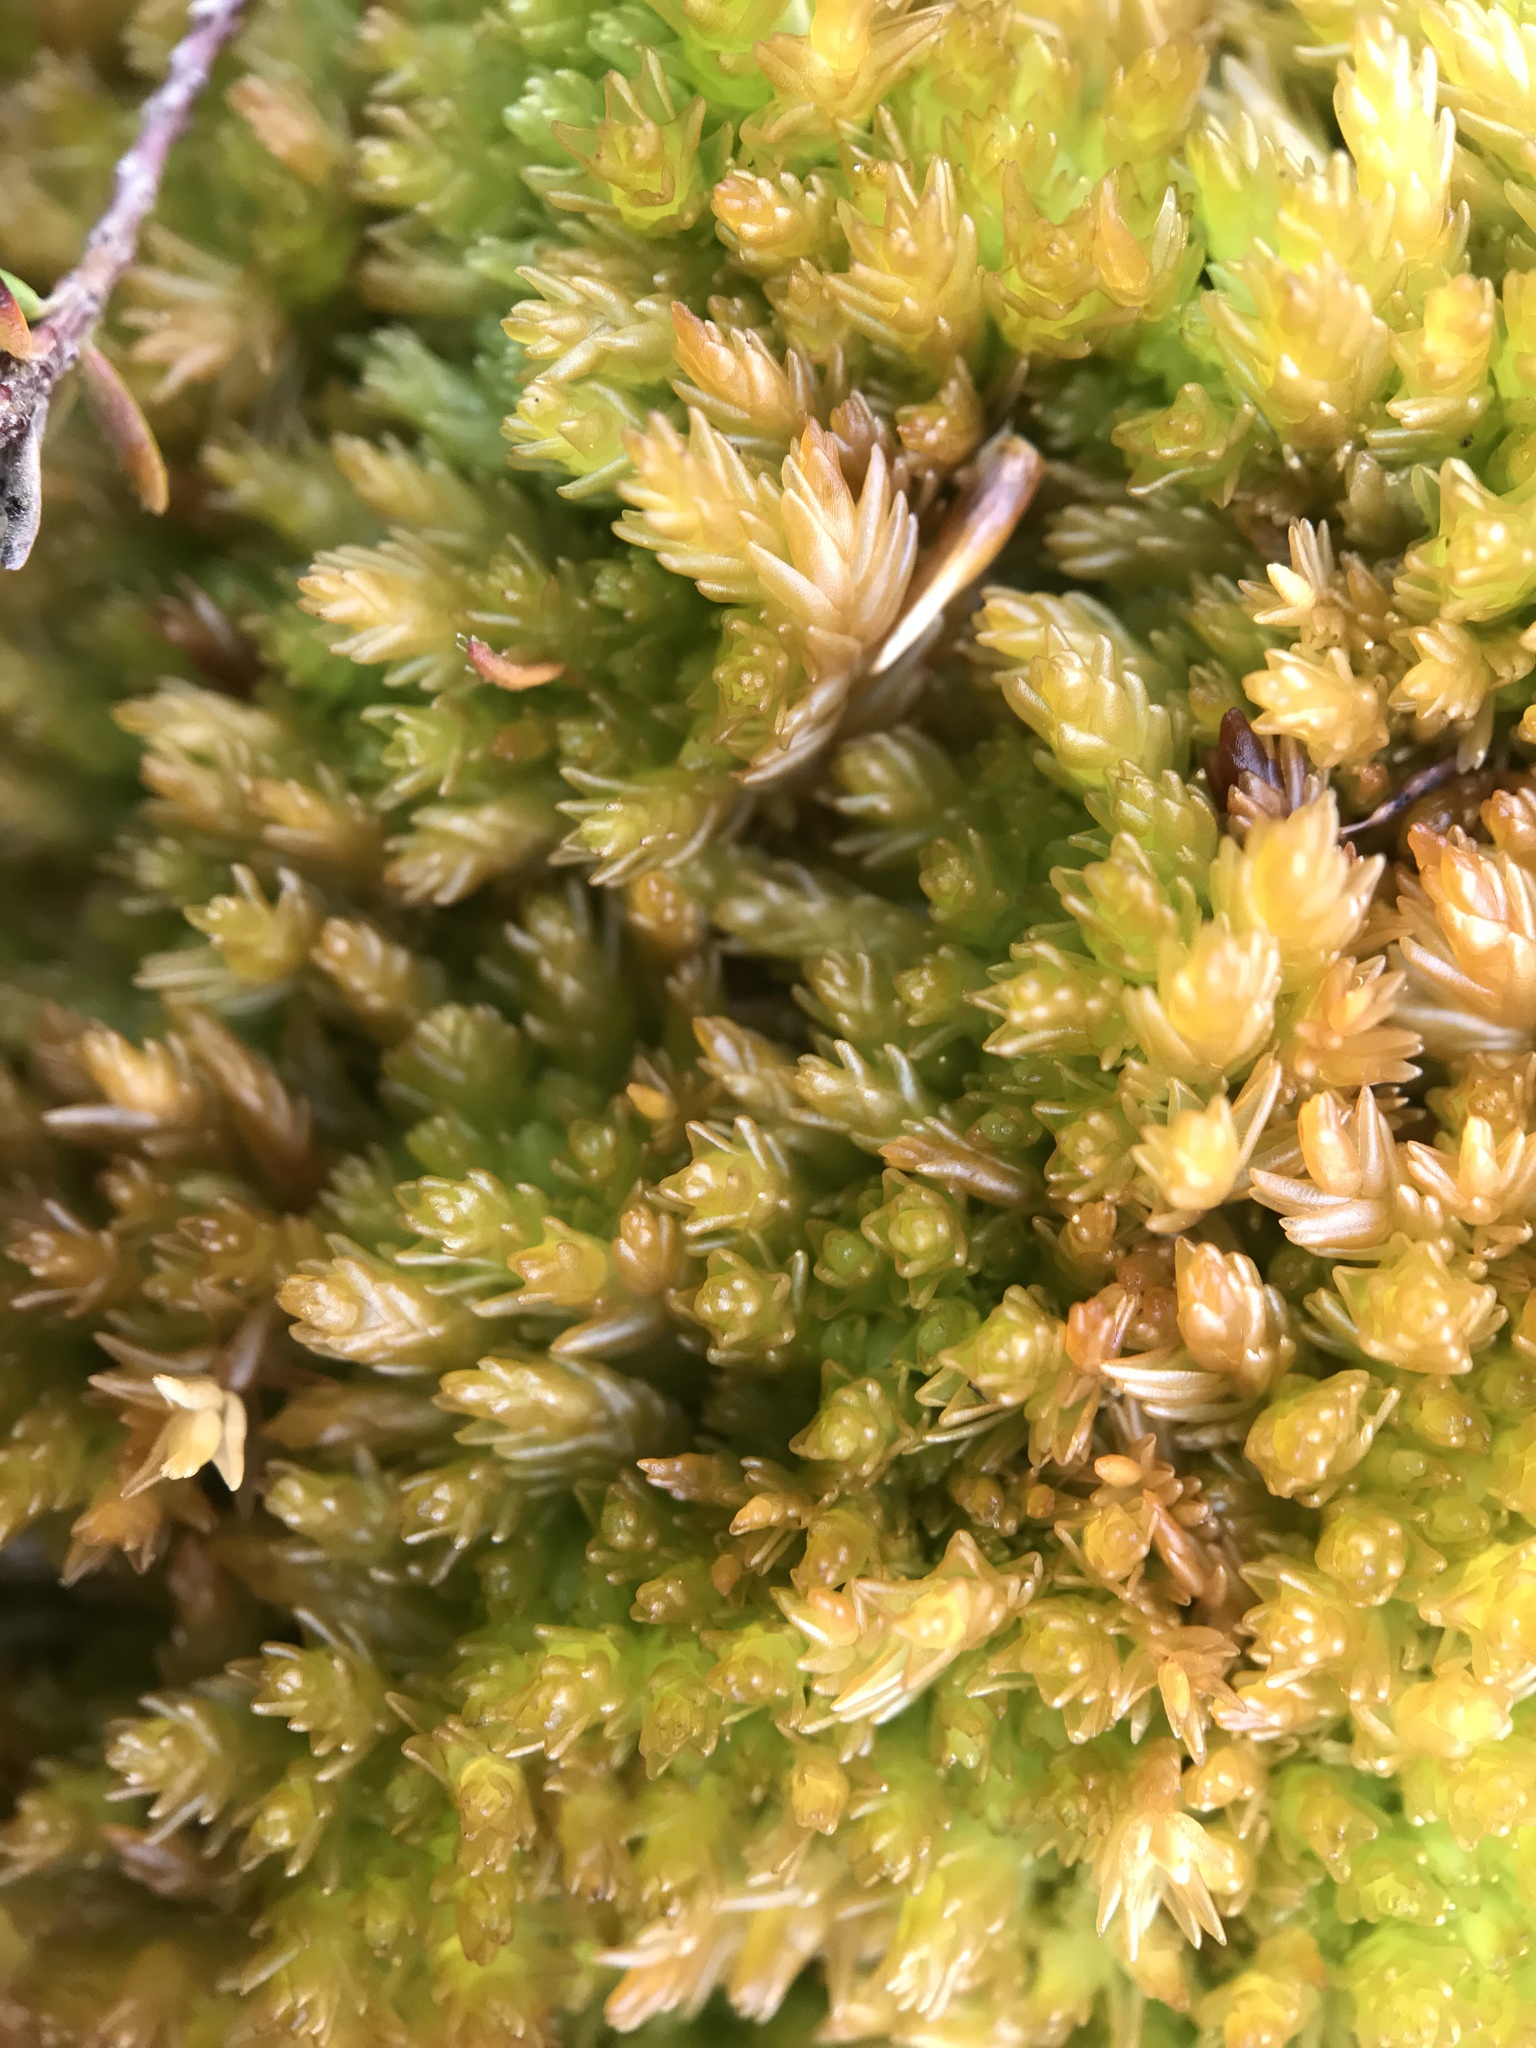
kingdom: Plantae
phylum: Bryophyta
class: Sphagnopsida
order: Sphagnales
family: Sphagnaceae
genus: Sphagnum
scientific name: Sphagnum compactum
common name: Compact peat moss
